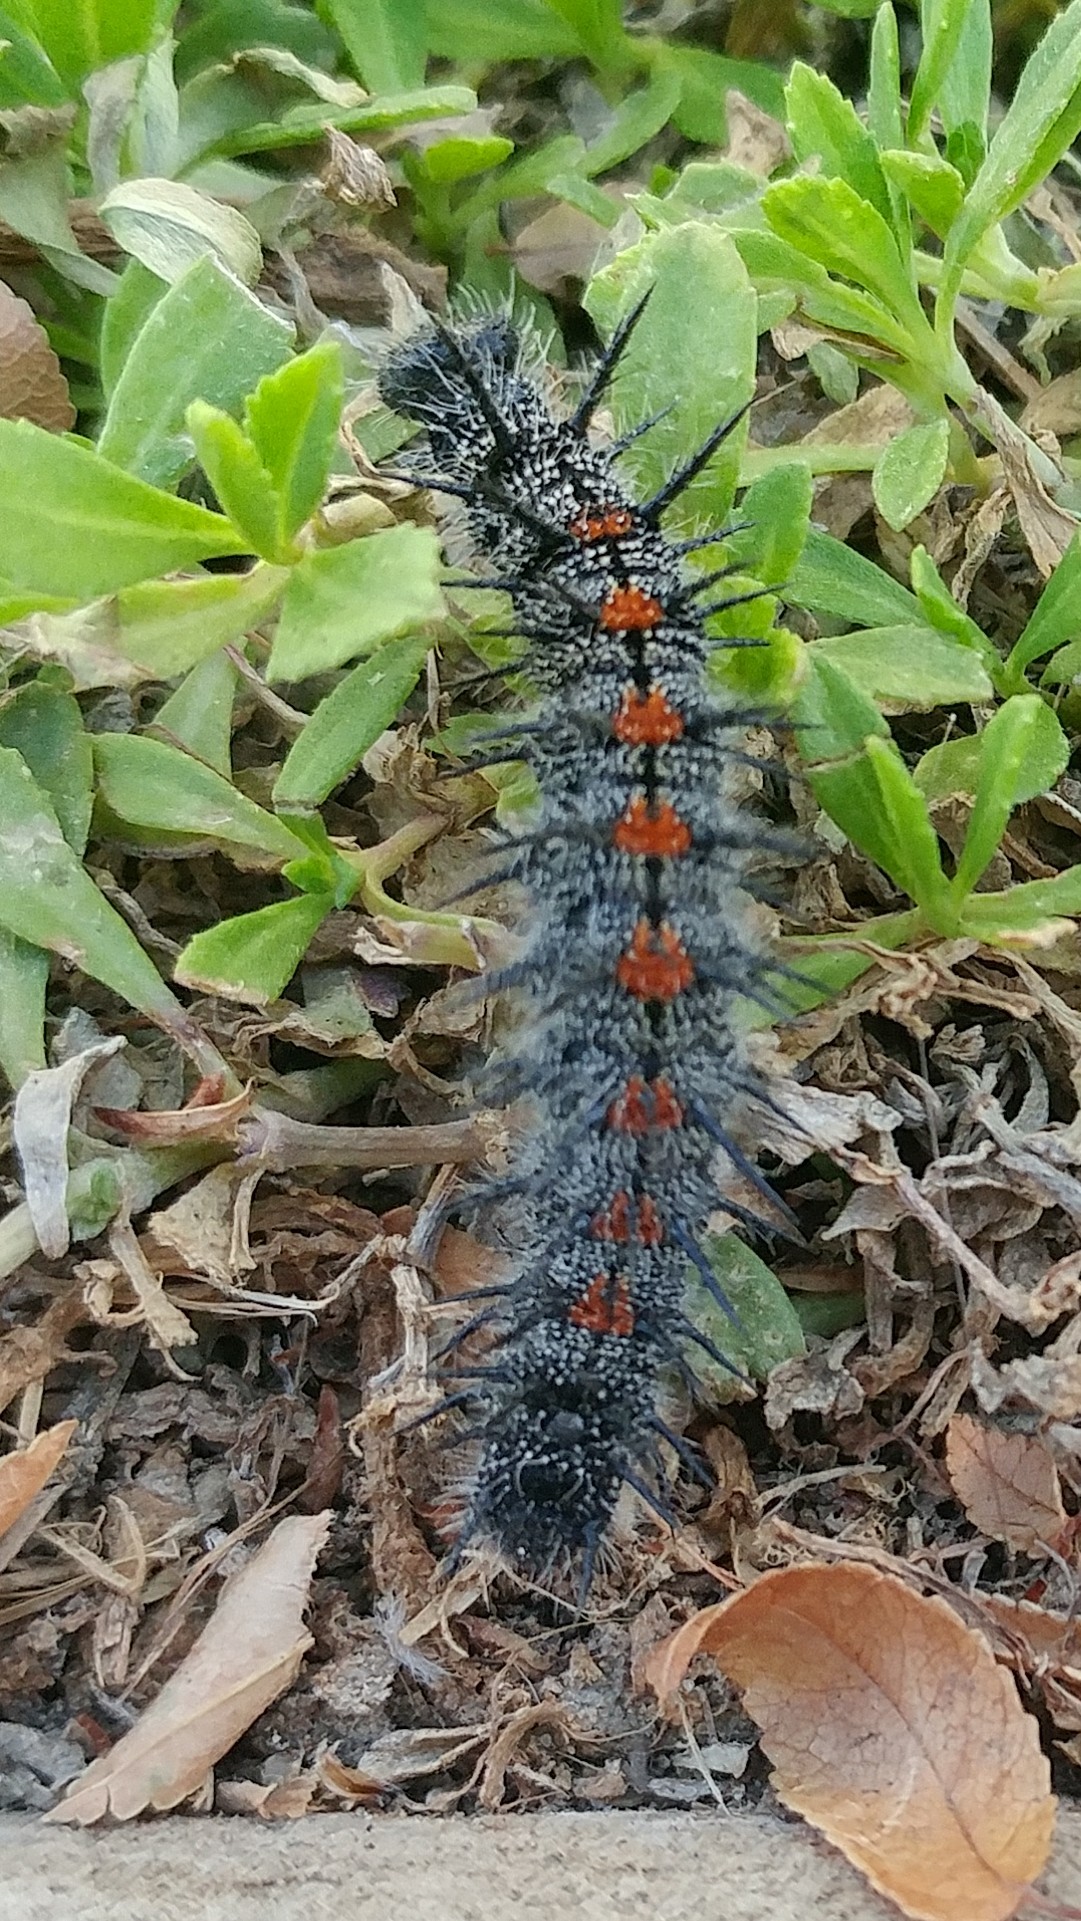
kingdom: Animalia
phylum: Arthropoda
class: Insecta
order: Lepidoptera
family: Nymphalidae
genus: Nymphalis
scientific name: Nymphalis antiopa
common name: Camberwell beauty
